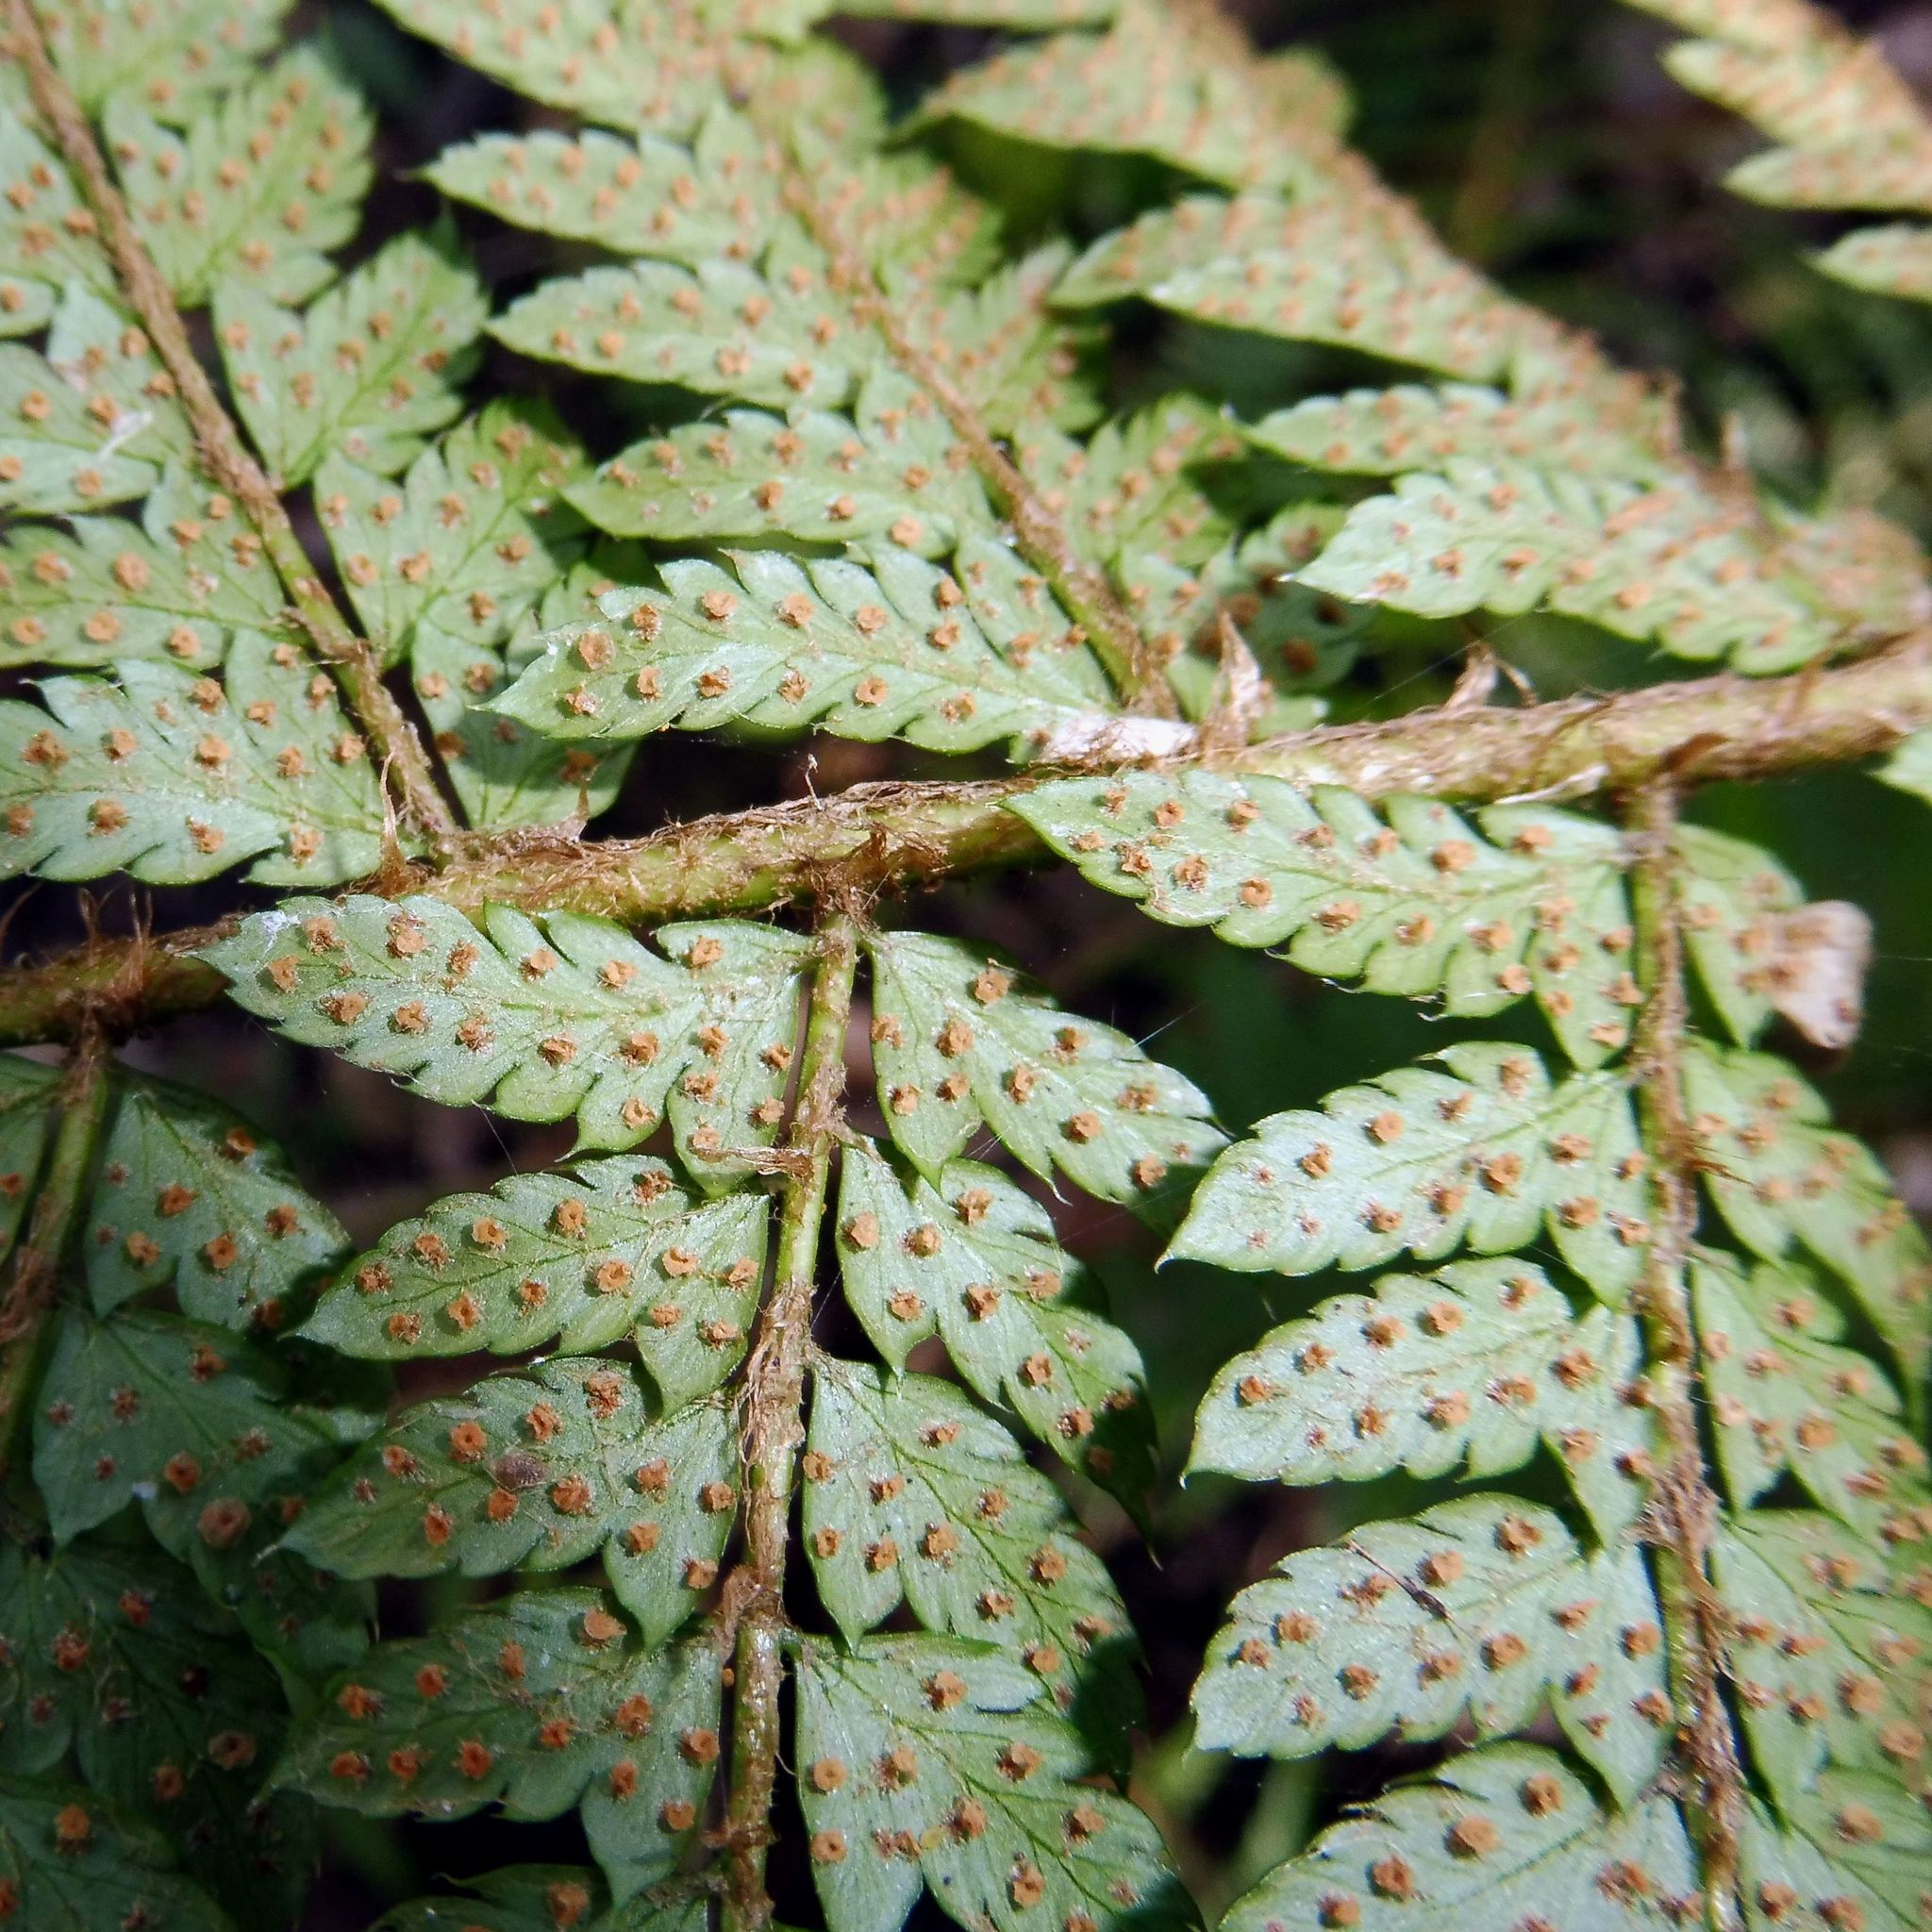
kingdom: Plantae
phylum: Tracheophyta
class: Polypodiopsida
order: Polypodiales
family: Dryopteridaceae
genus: Polystichum
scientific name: Polystichum setiferum
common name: Soft shield-fern
